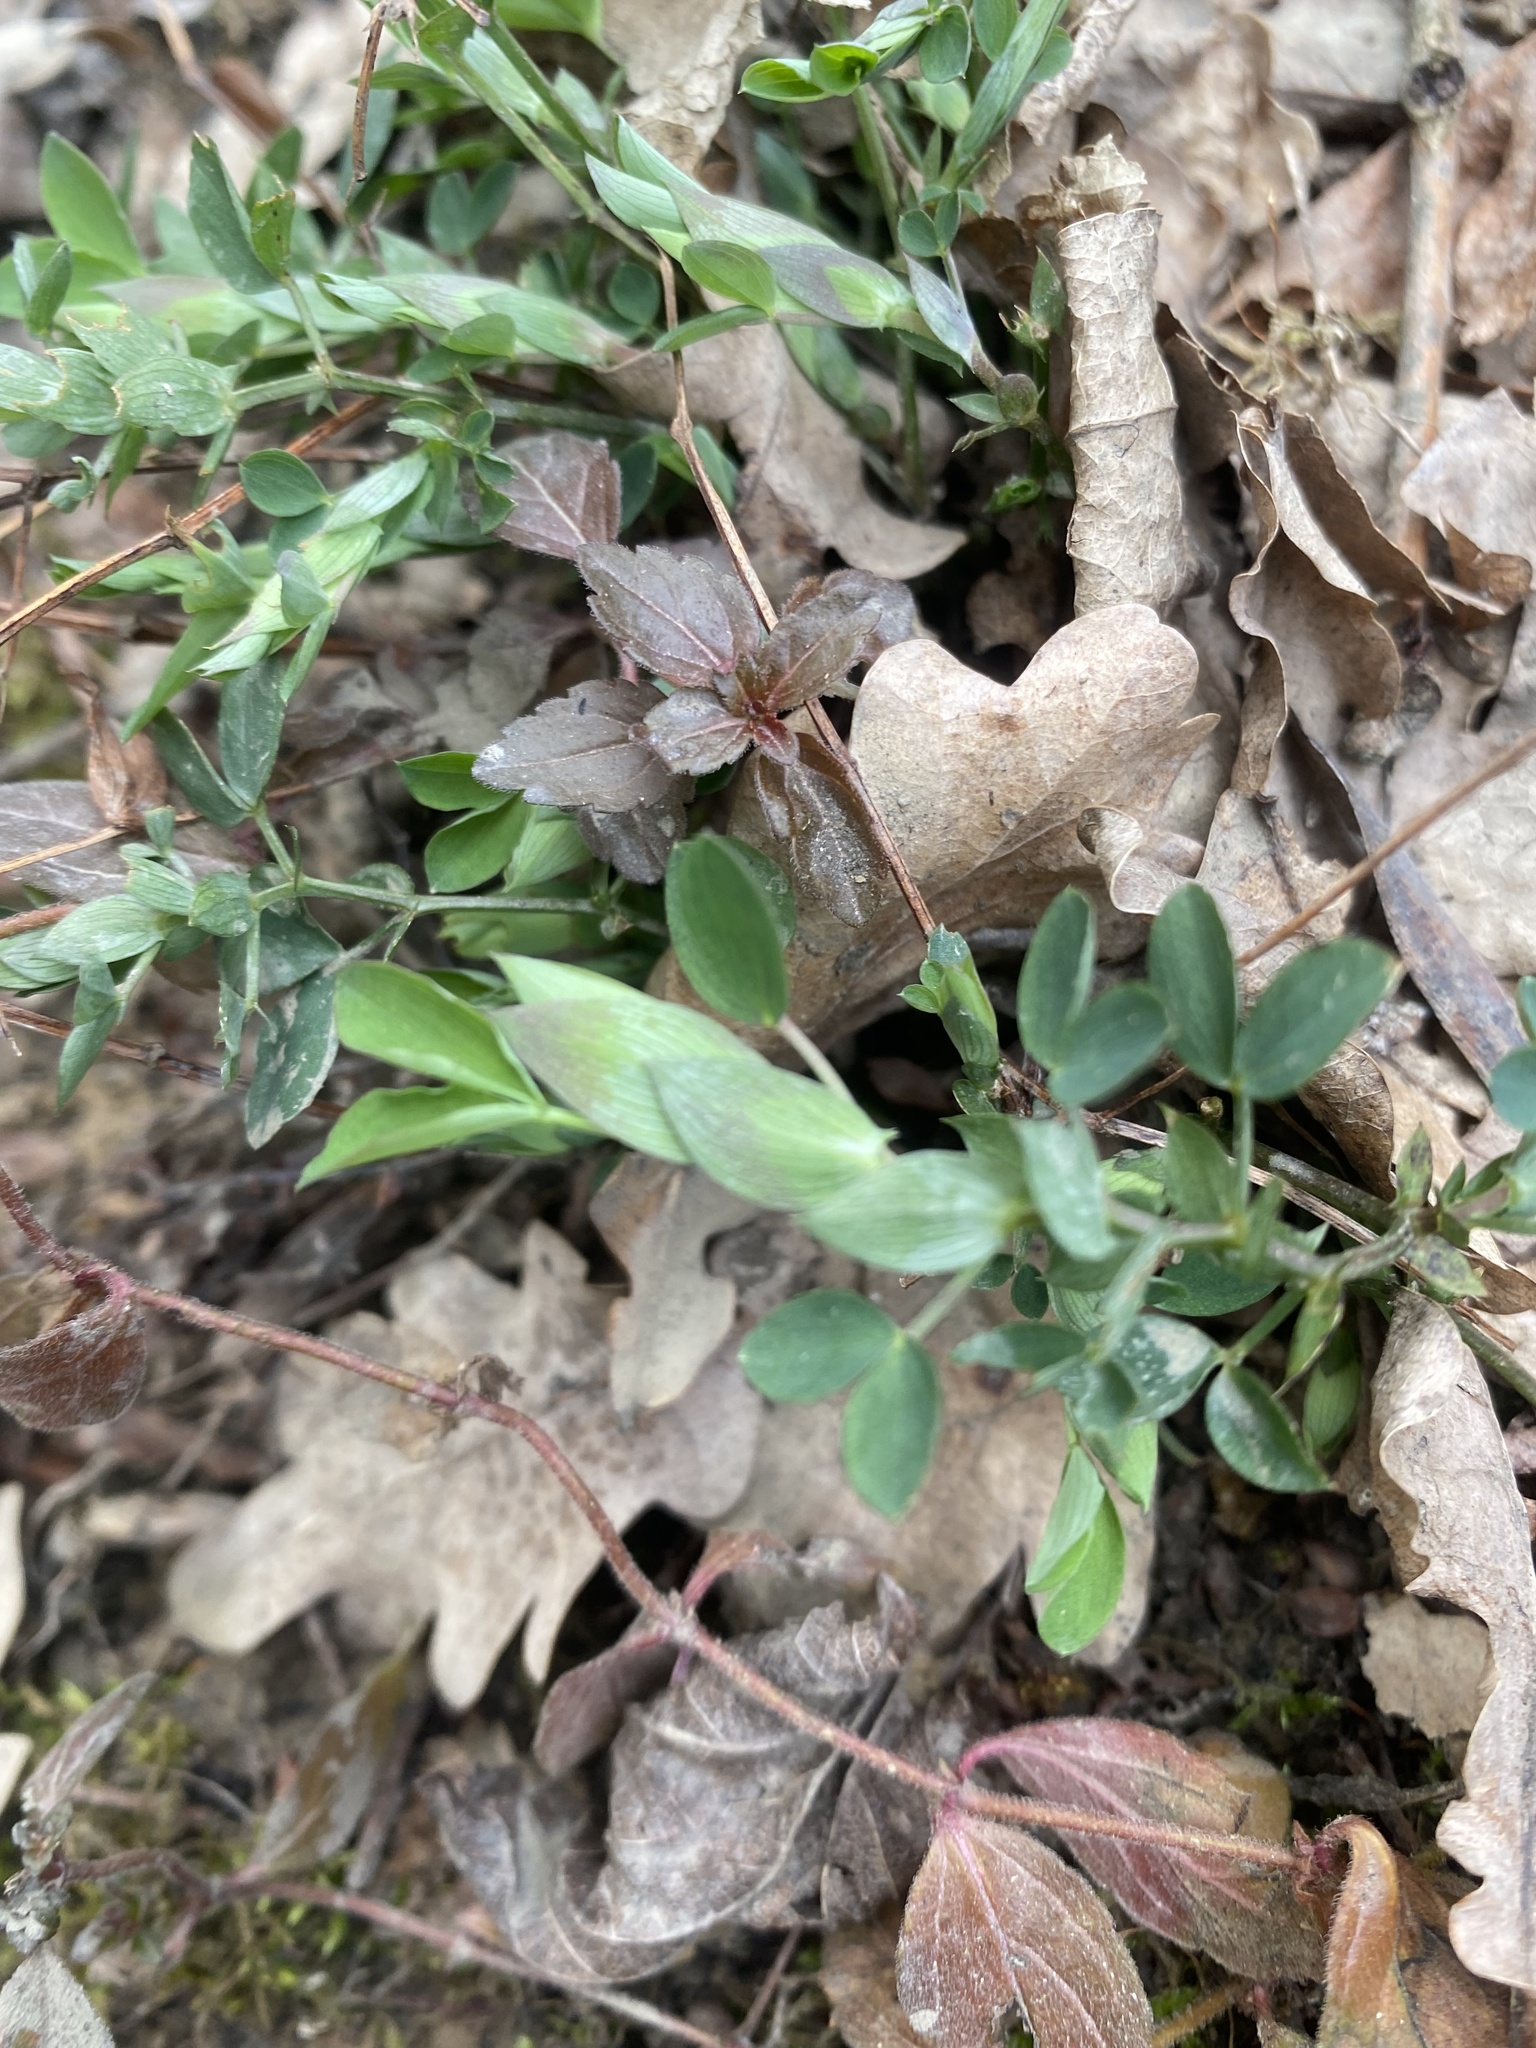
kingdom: Plantae
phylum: Tracheophyta
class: Magnoliopsida
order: Fabales
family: Fabaceae
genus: Lathyrus
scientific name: Lathyrus laxiflorus
